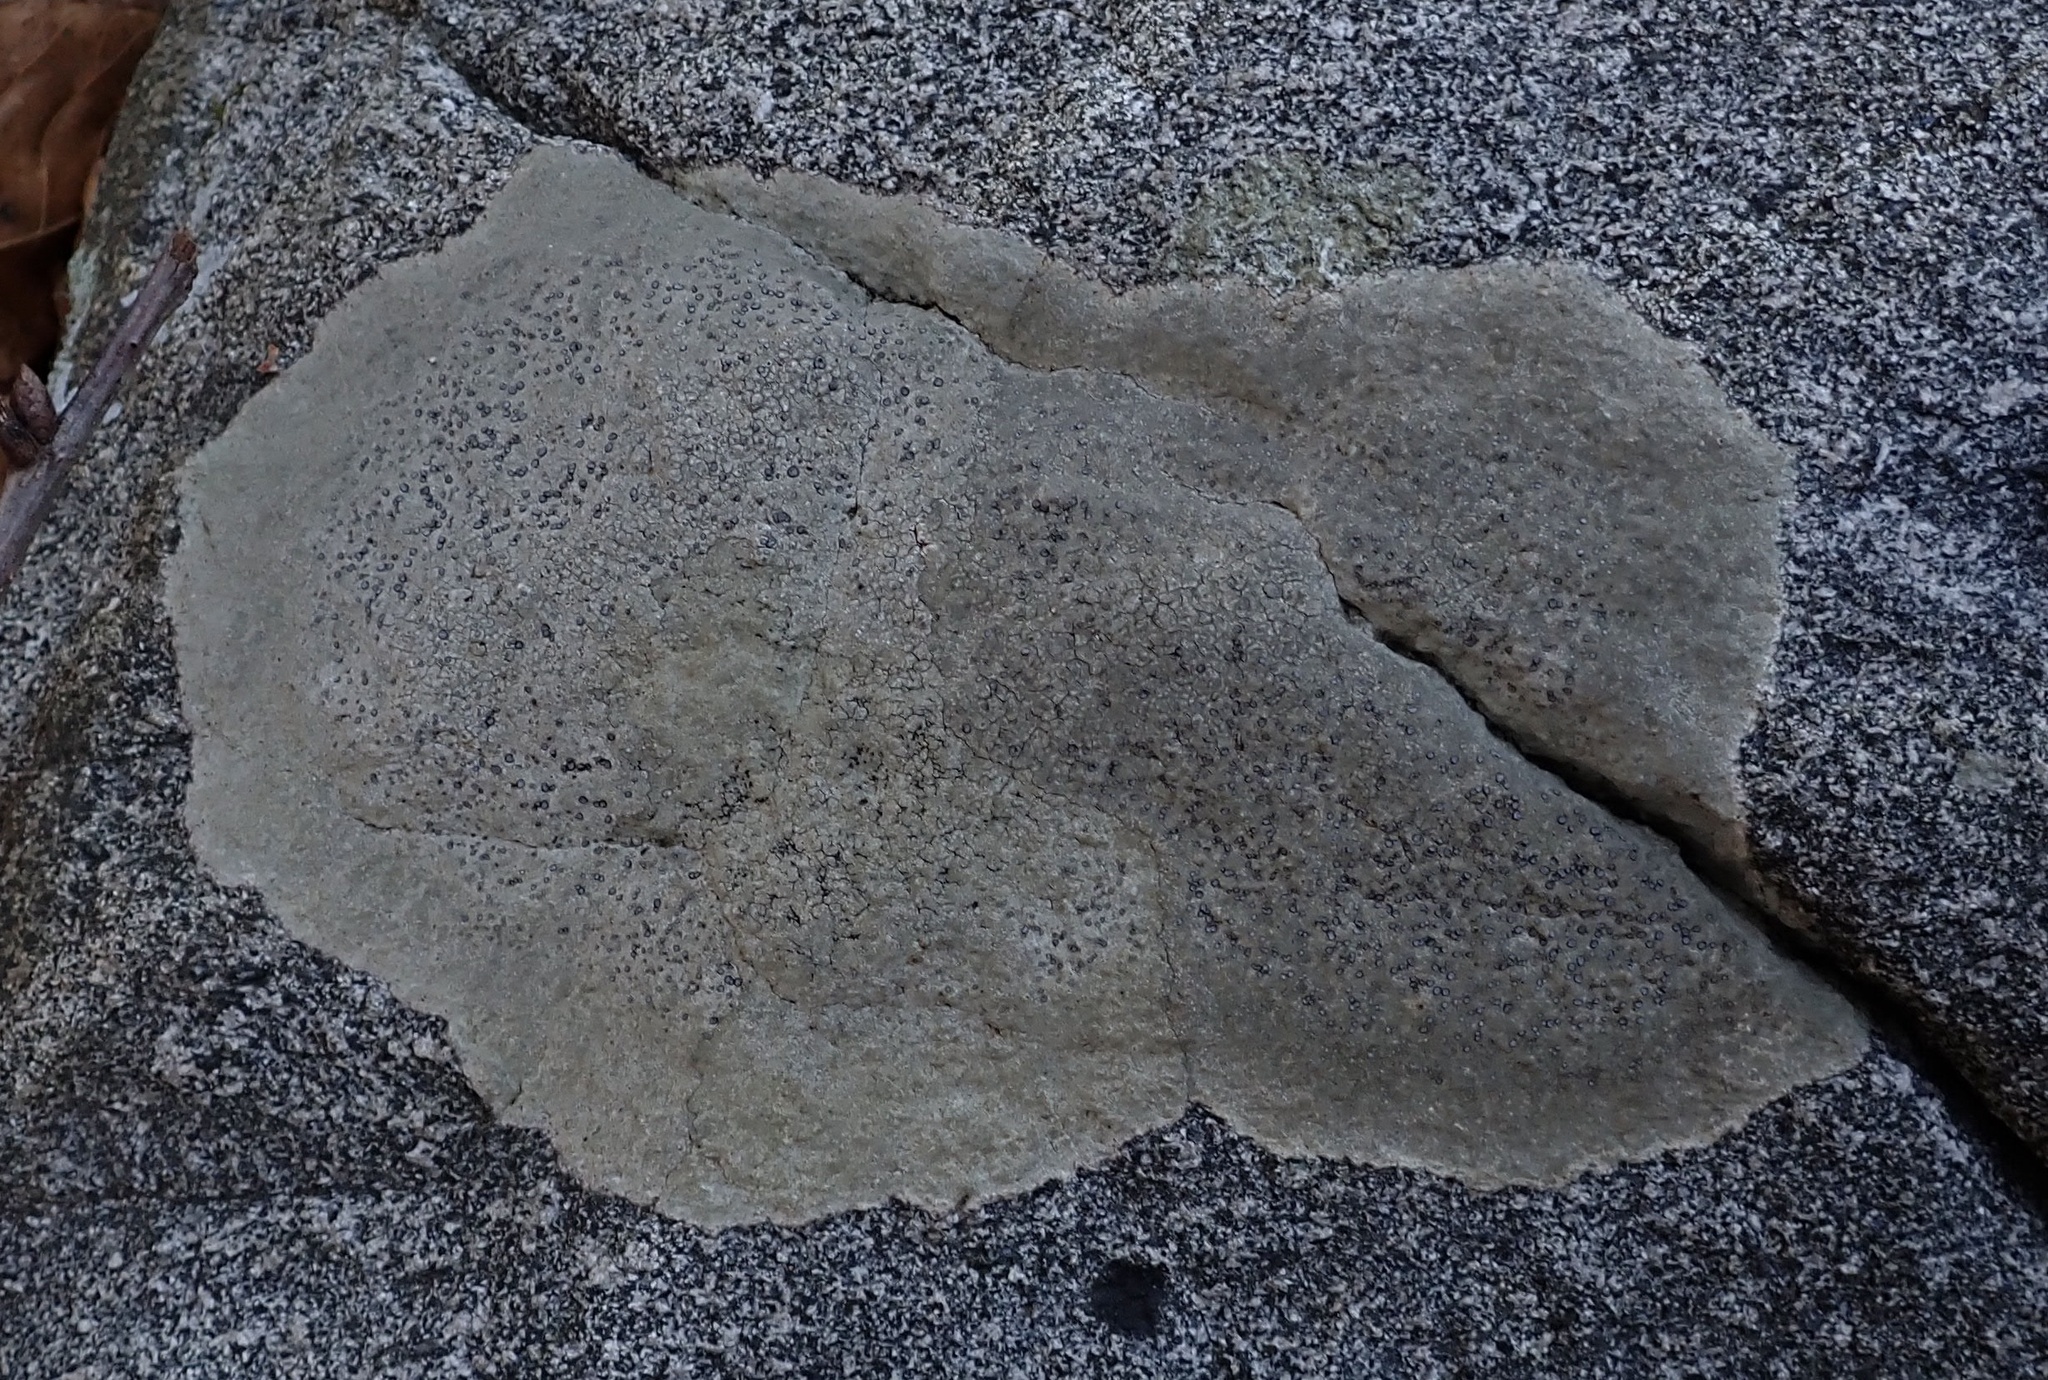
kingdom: Fungi
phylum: Ascomycota
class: Lecanoromycetes
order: Lecideales
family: Lecideaceae
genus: Porpidia
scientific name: Porpidia albocaerulescens
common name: Smokey-eyed boulder lichen
